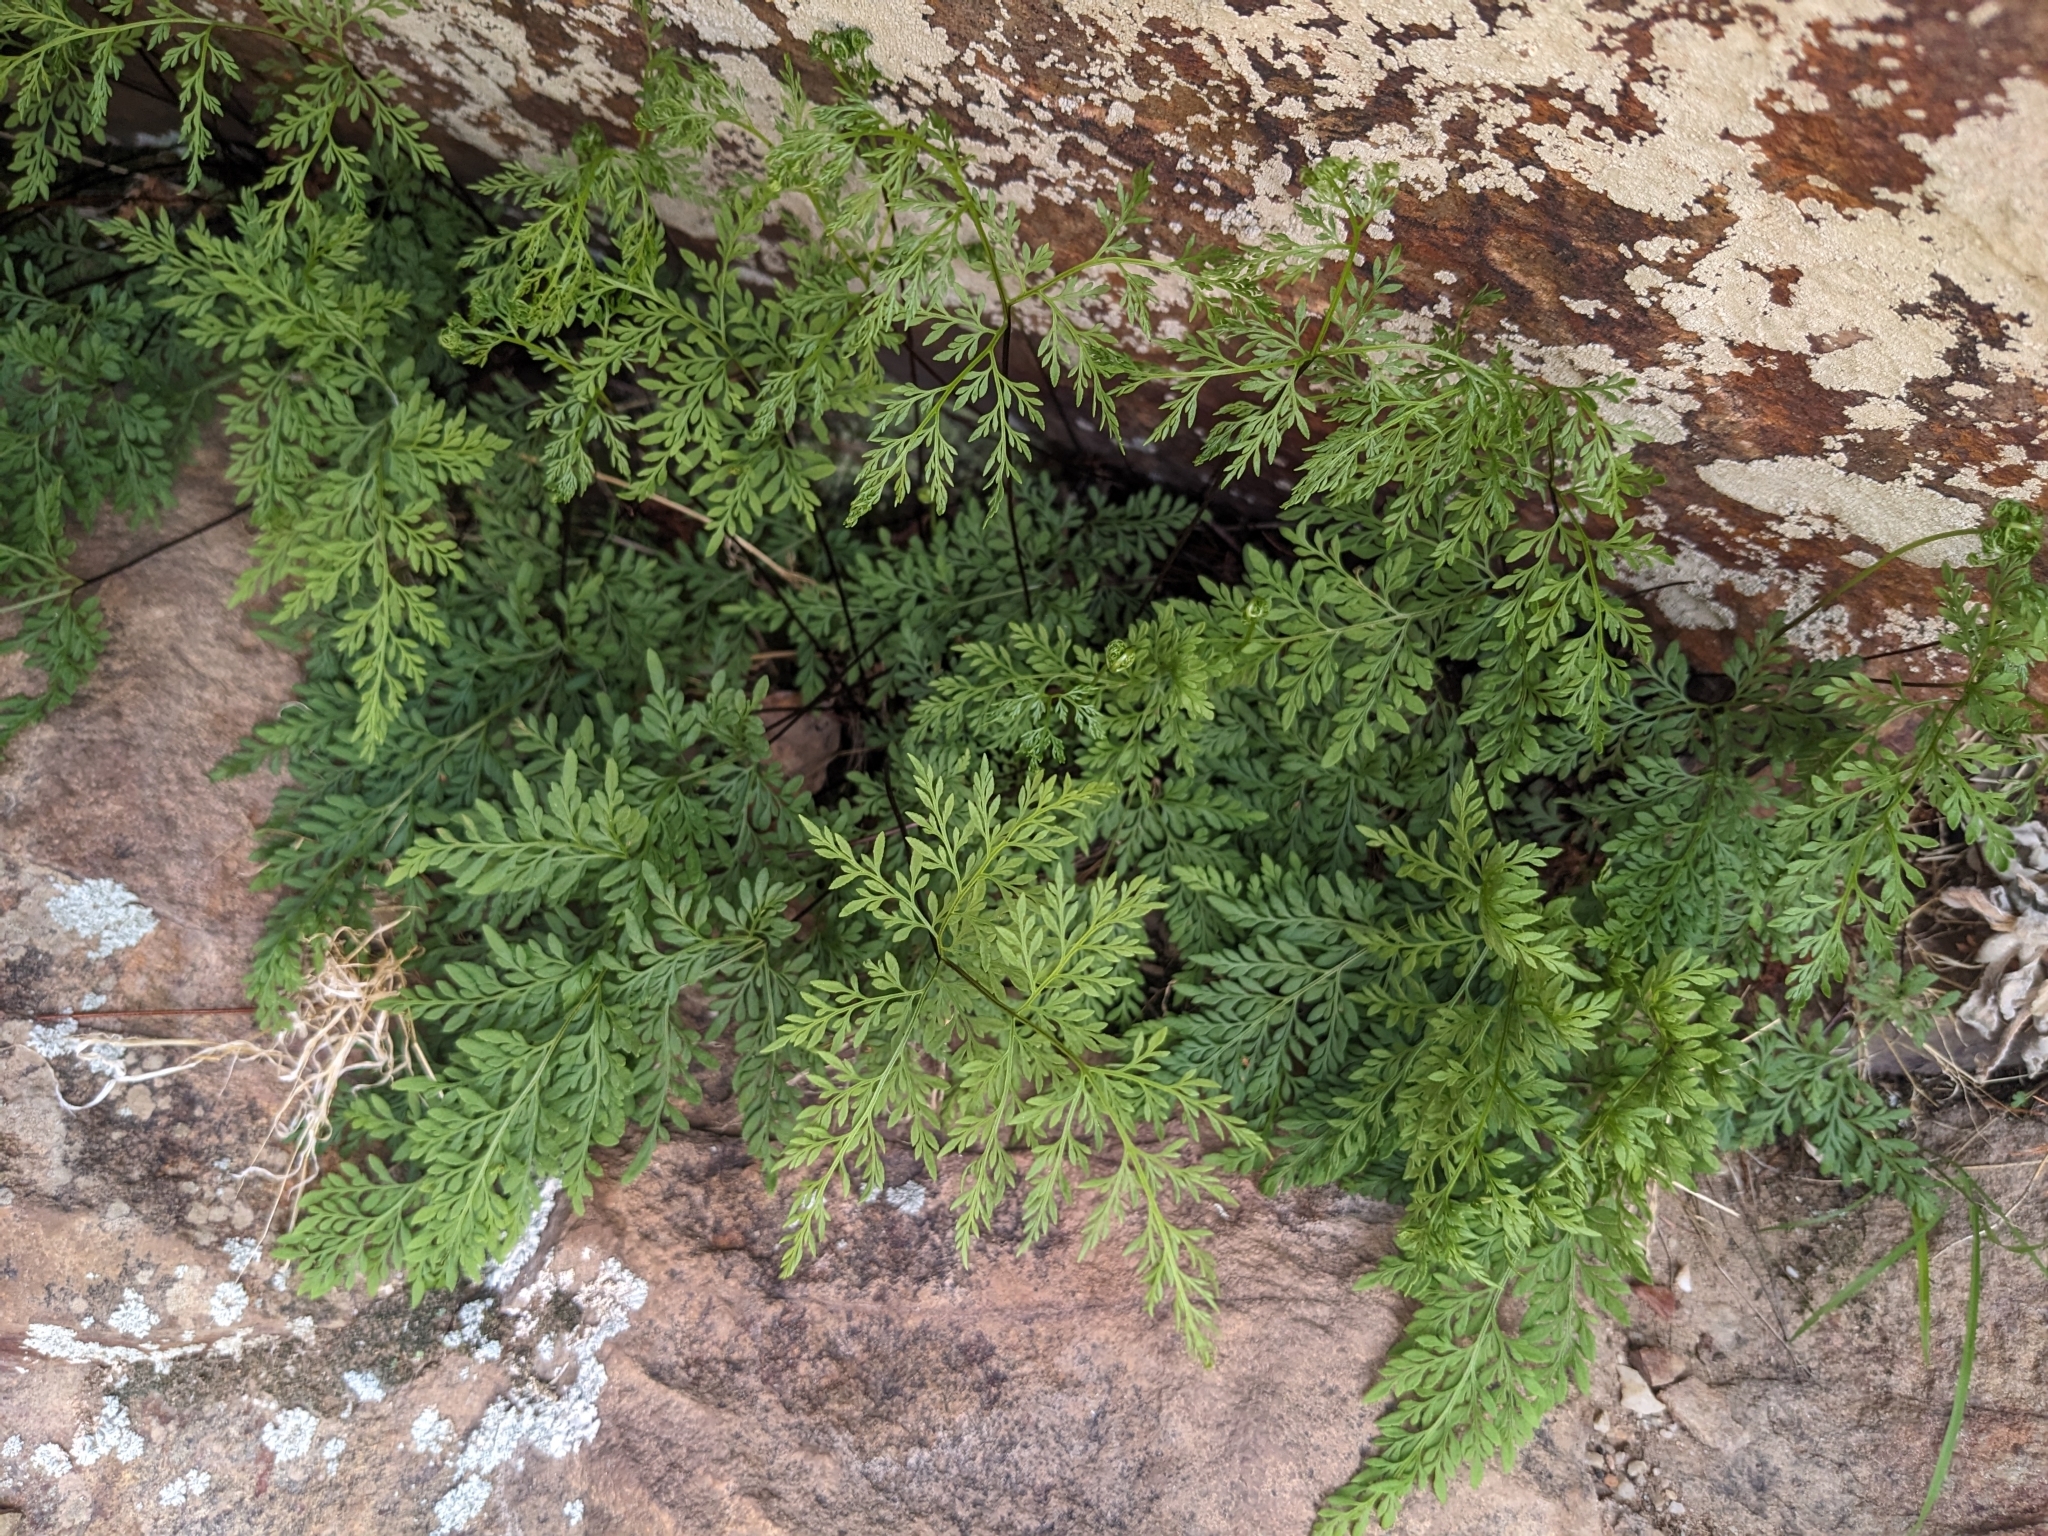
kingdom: Plantae
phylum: Tracheophyta
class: Polypodiopsida
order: Polypodiales
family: Pteridaceae
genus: Gaga
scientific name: Gaga arizonica
